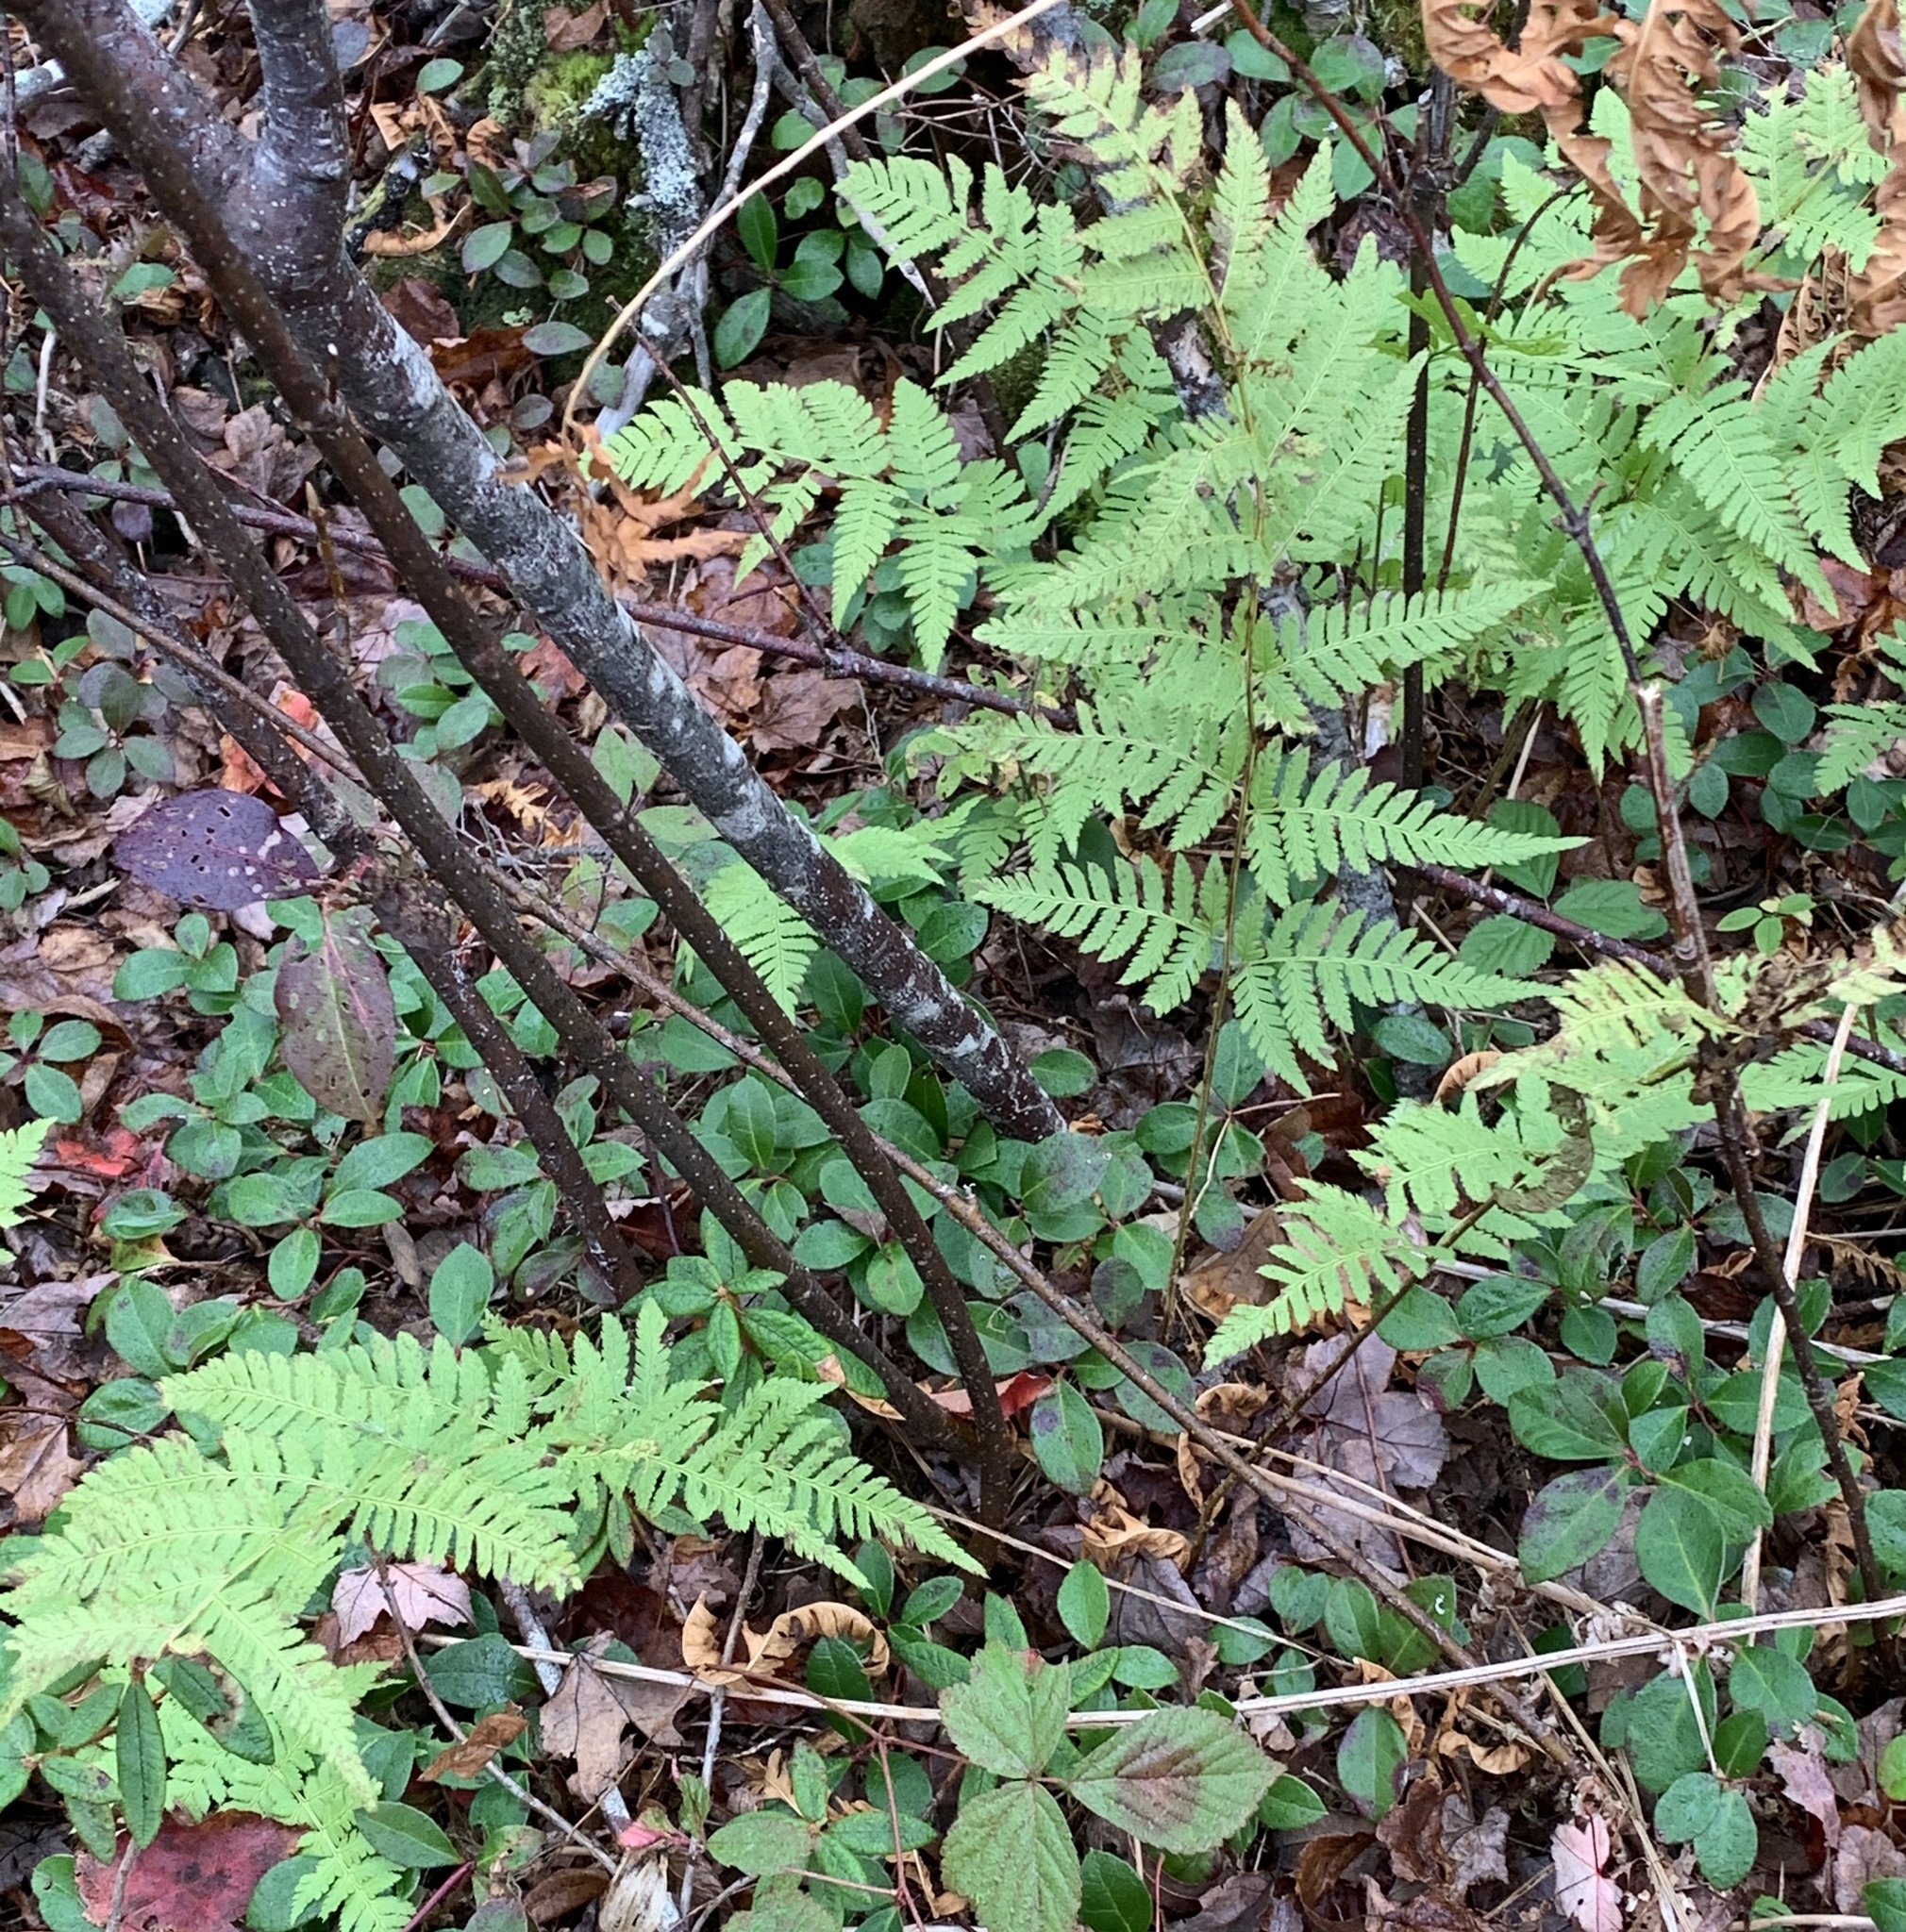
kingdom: Plantae
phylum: Tracheophyta
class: Polypodiopsida
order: Polypodiales
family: Dryopteridaceae
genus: Dryopteris
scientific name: Dryopteris carthusiana
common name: Narrow buckler-fern
